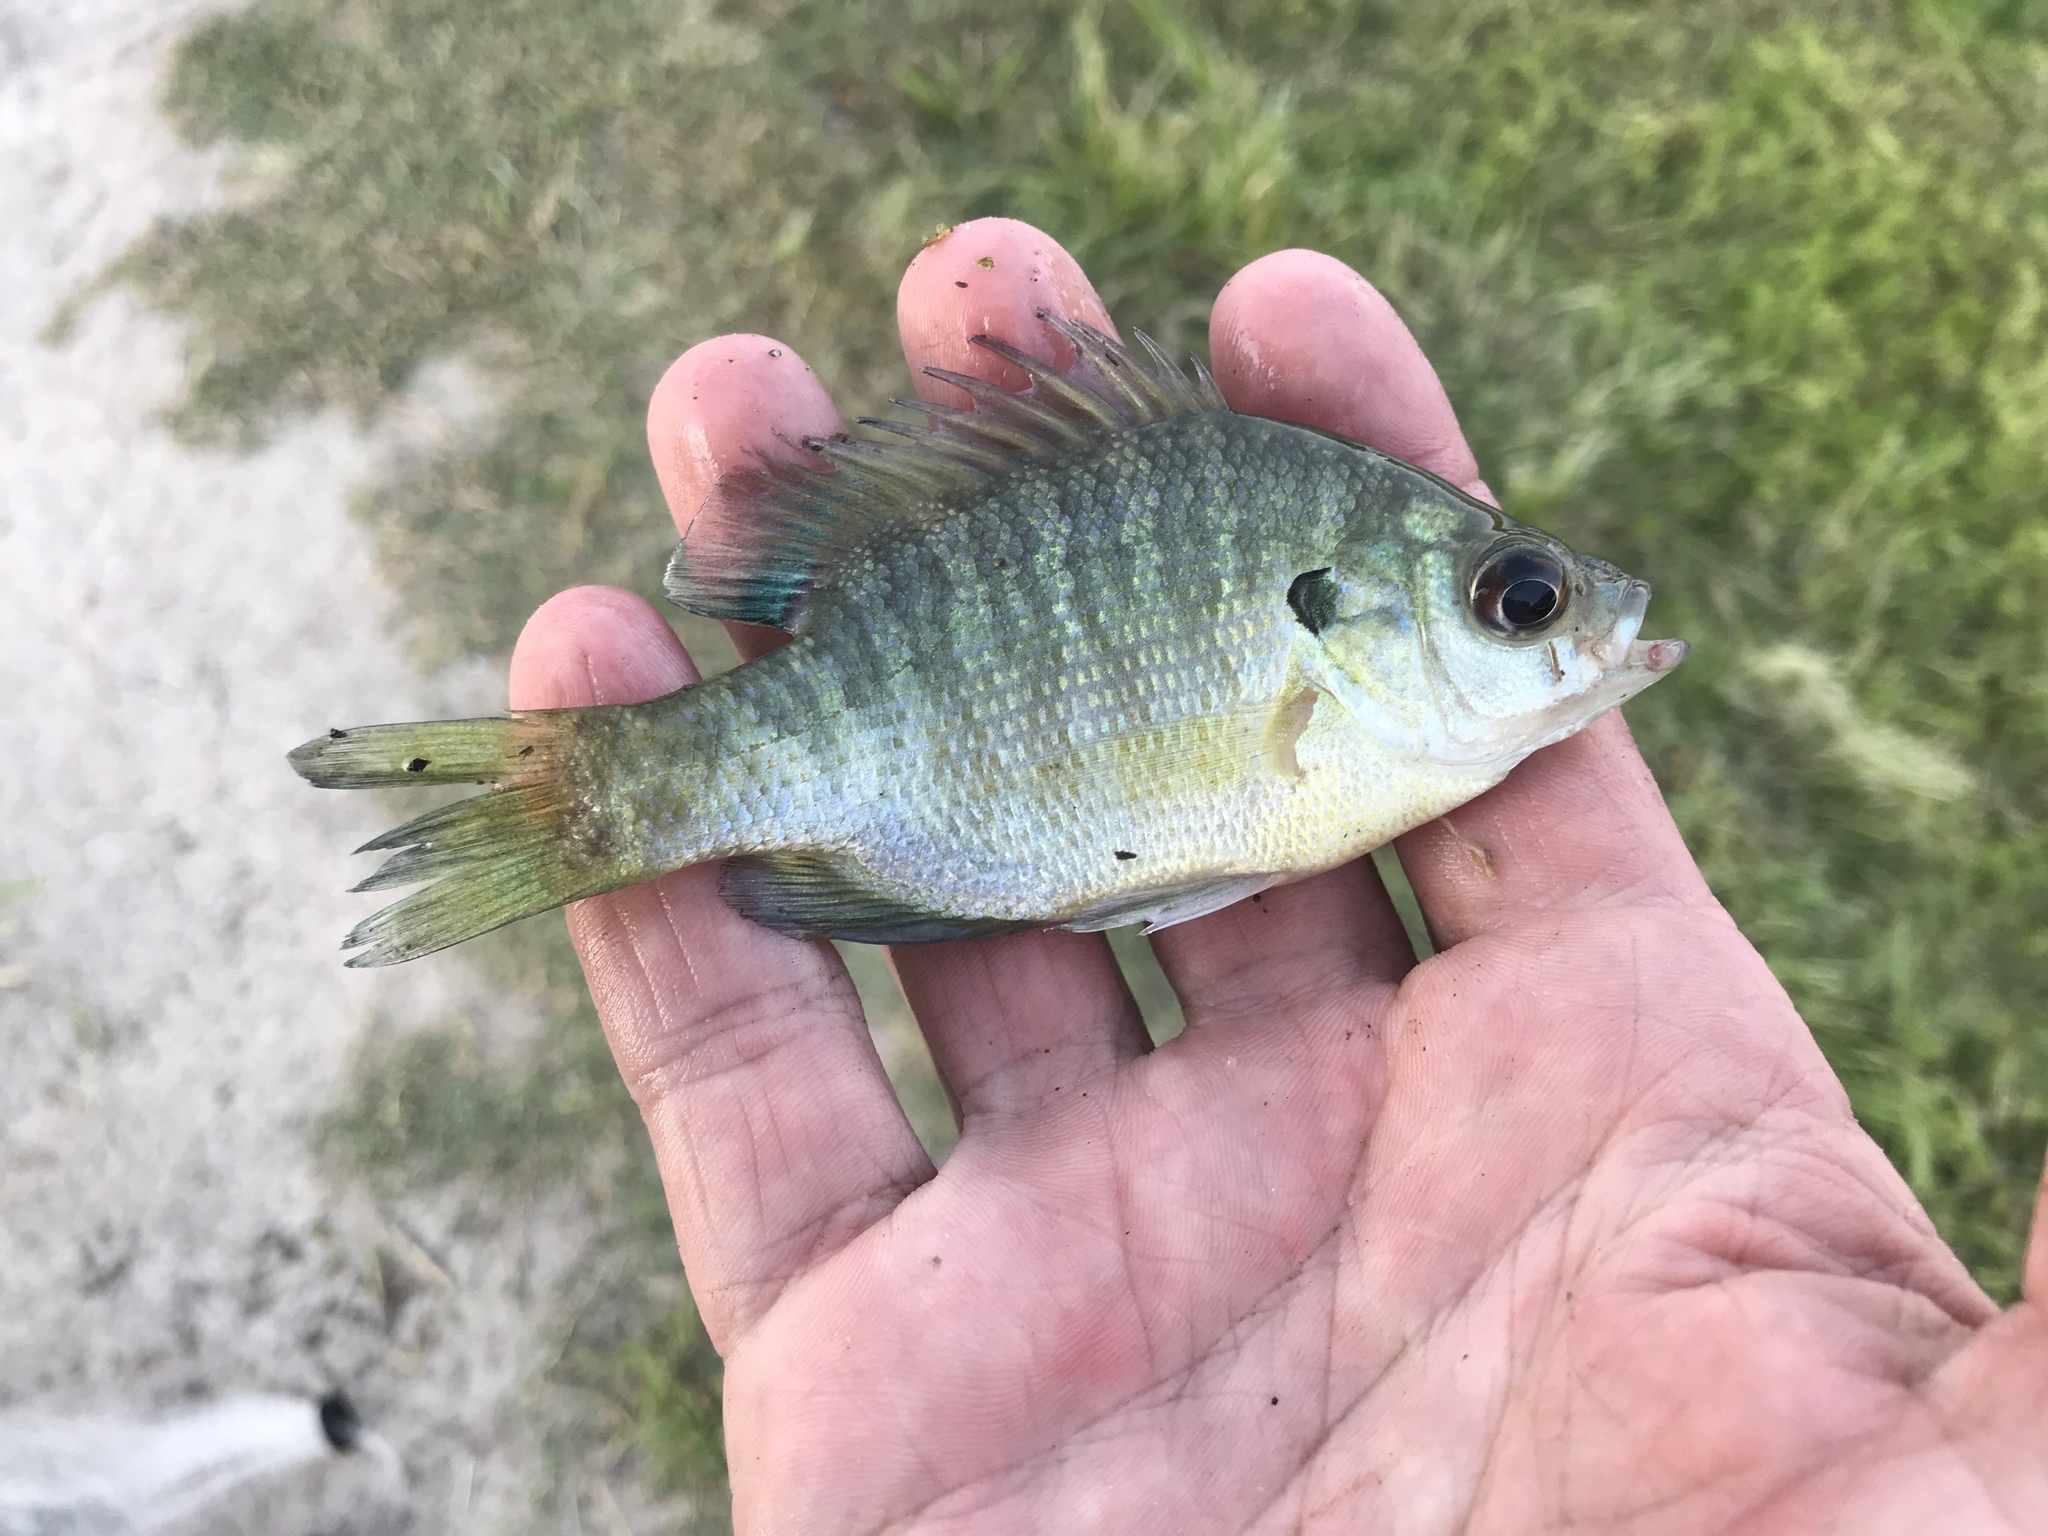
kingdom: Animalia
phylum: Chordata
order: Perciformes
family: Centrarchidae
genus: Lepomis
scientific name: Lepomis macrochirus
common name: Bluegill
